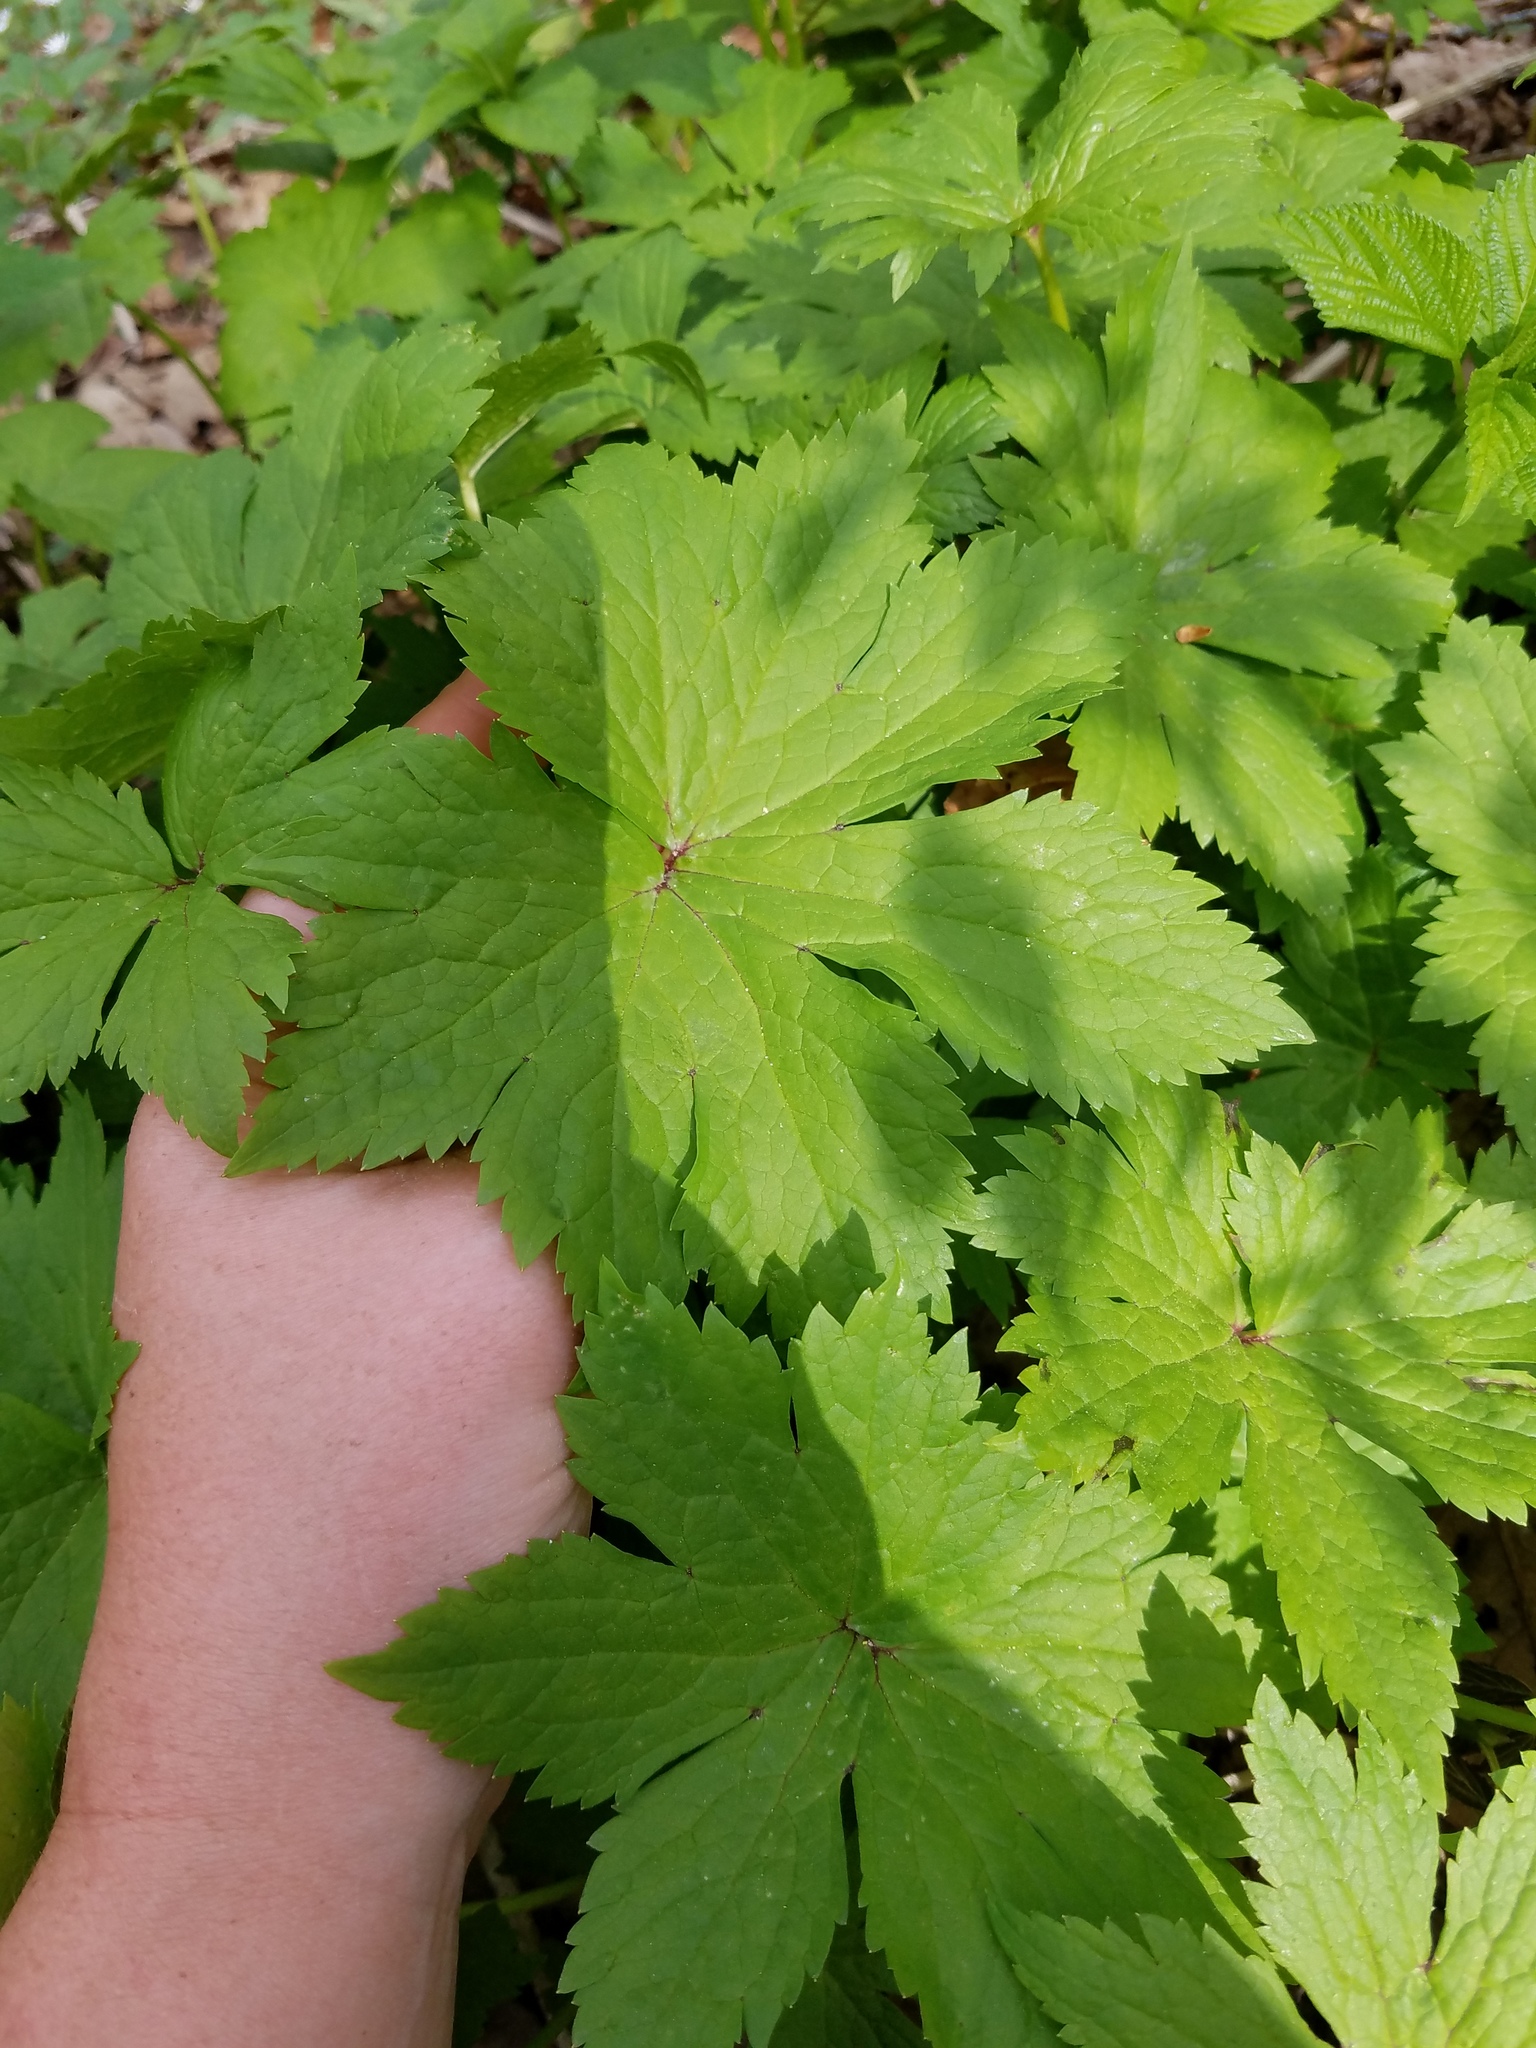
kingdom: Plantae
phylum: Tracheophyta
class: Magnoliopsida
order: Ranunculales
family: Ranunculaceae
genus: Trautvetteria
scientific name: Trautvetteria carolinensis
